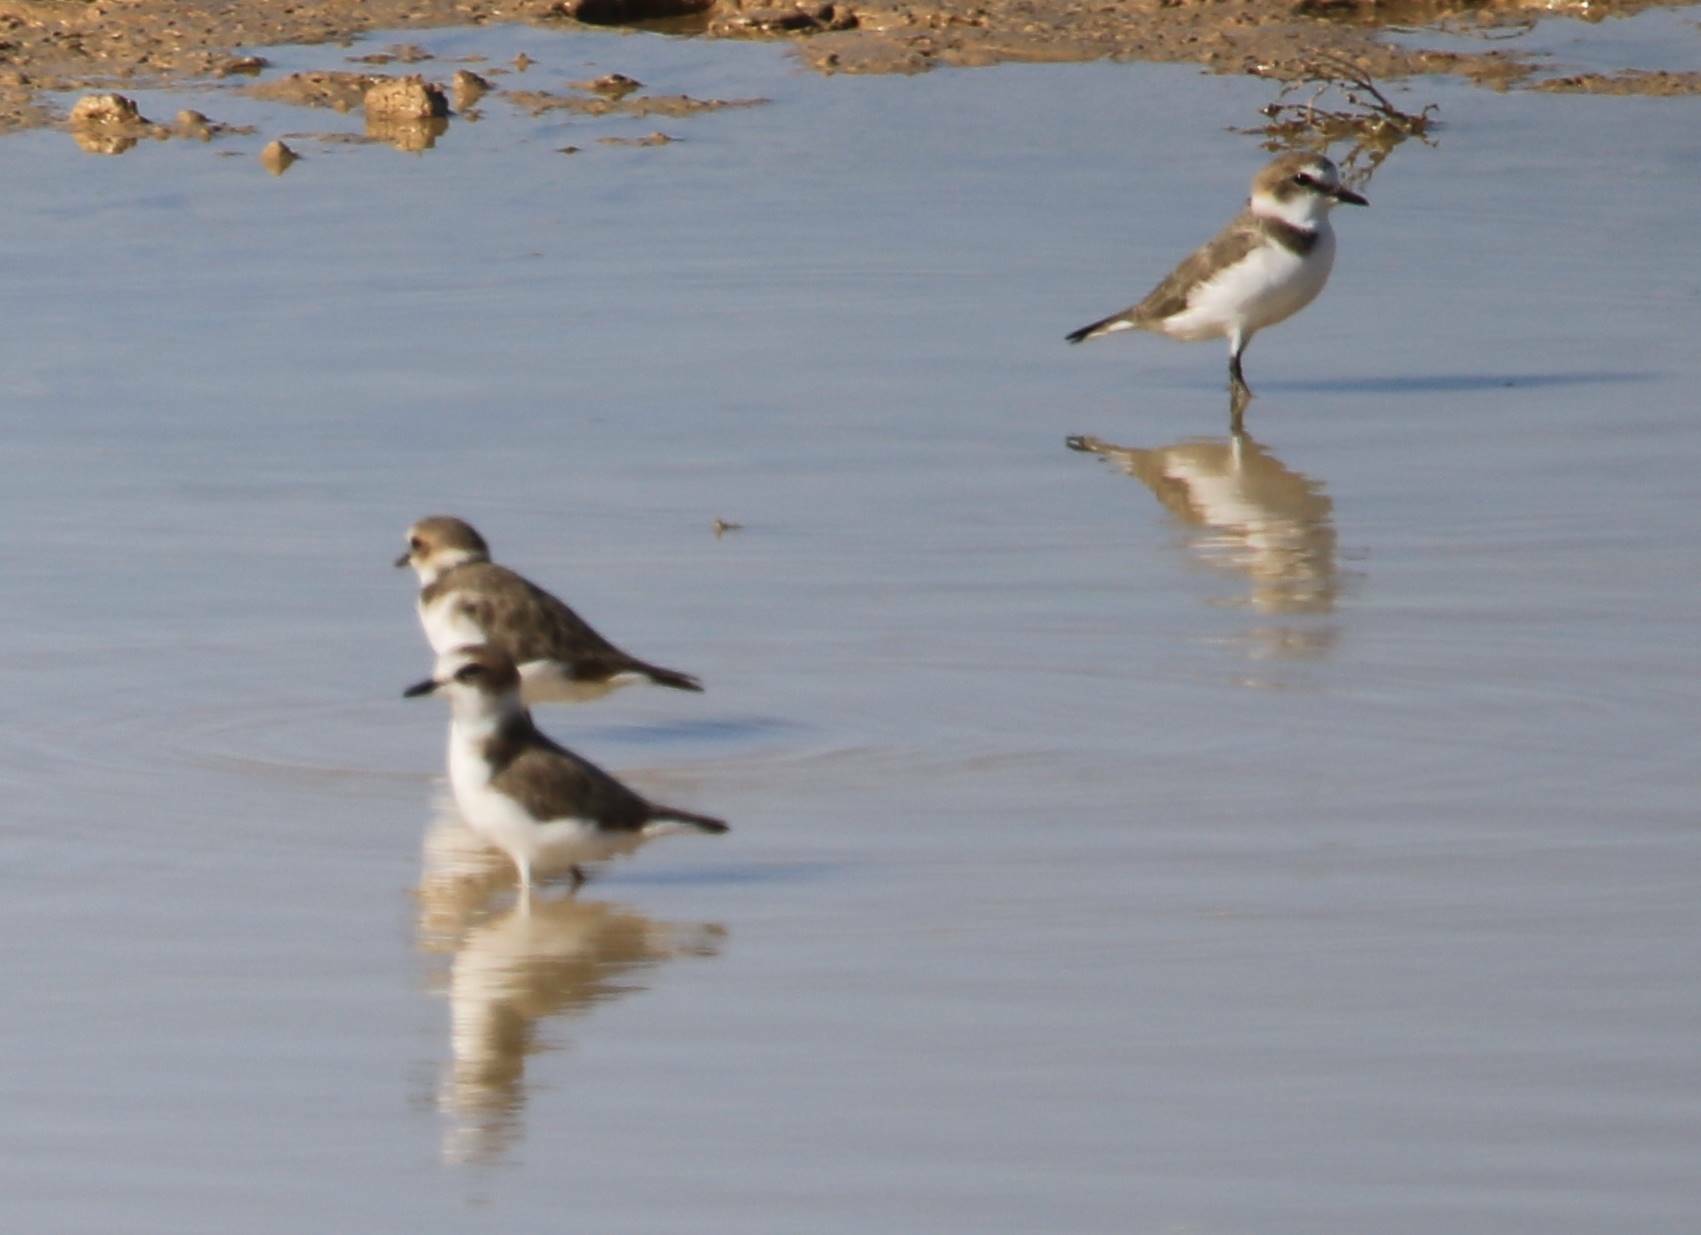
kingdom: Animalia
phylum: Chordata
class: Aves
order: Charadriiformes
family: Charadriidae
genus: Charadrius
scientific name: Charadrius alexandrinus
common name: Kentish plover
